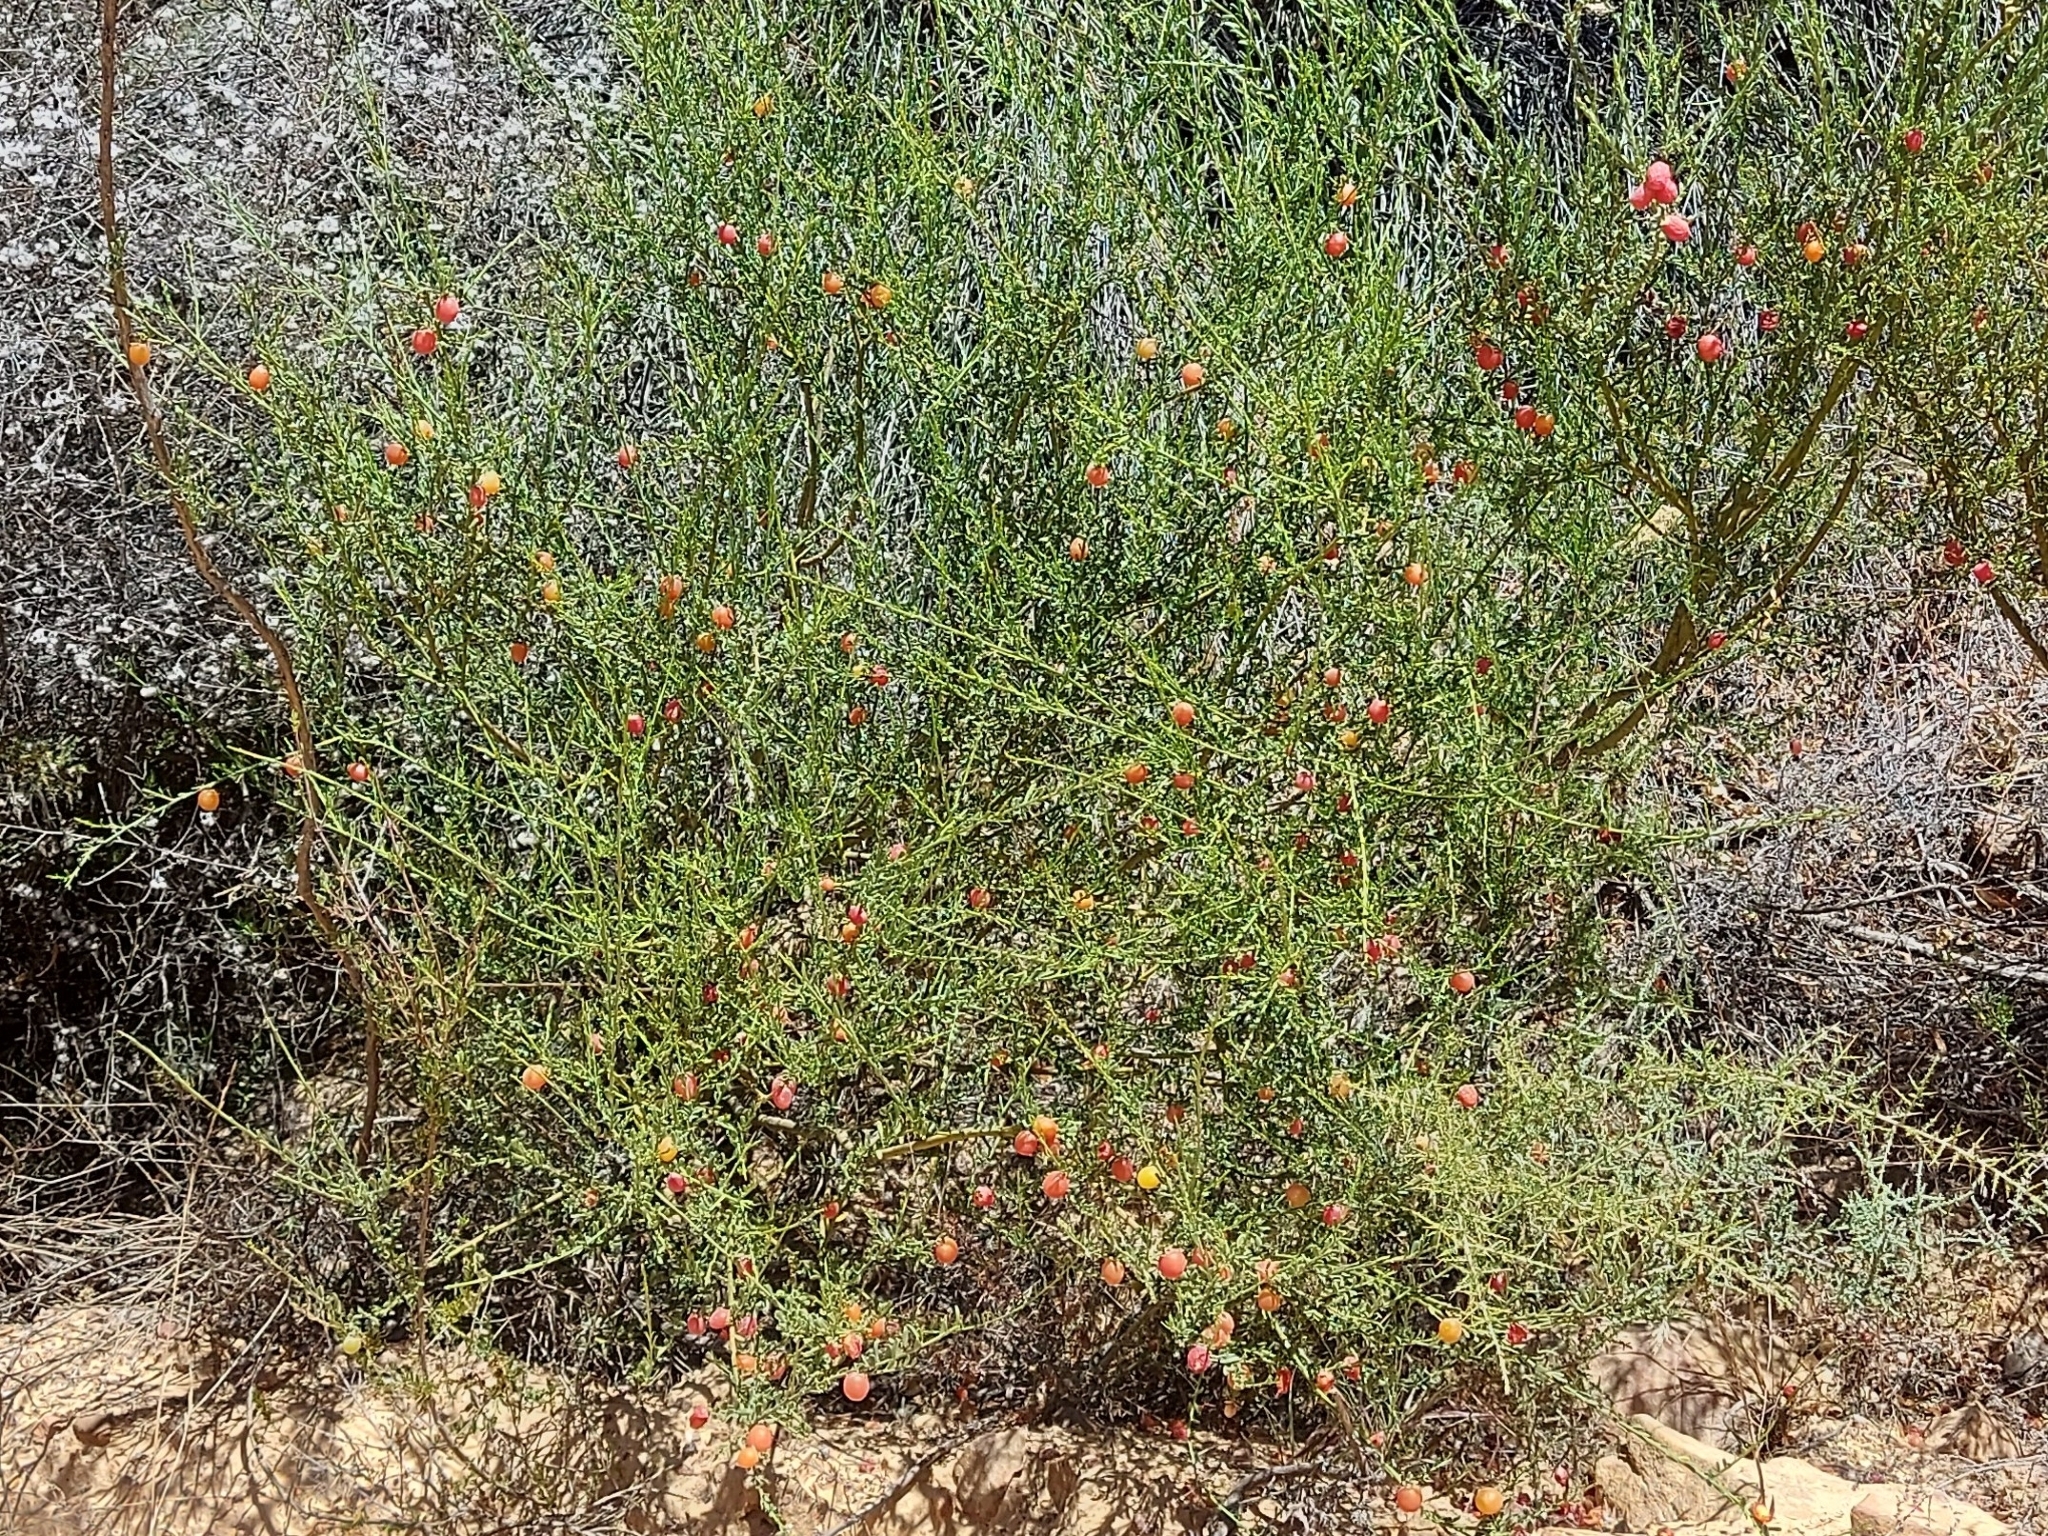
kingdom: Plantae
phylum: Tracheophyta
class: Magnoliopsida
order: Fabales
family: Polygalaceae
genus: Muraltia
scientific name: Muraltia spinosa
